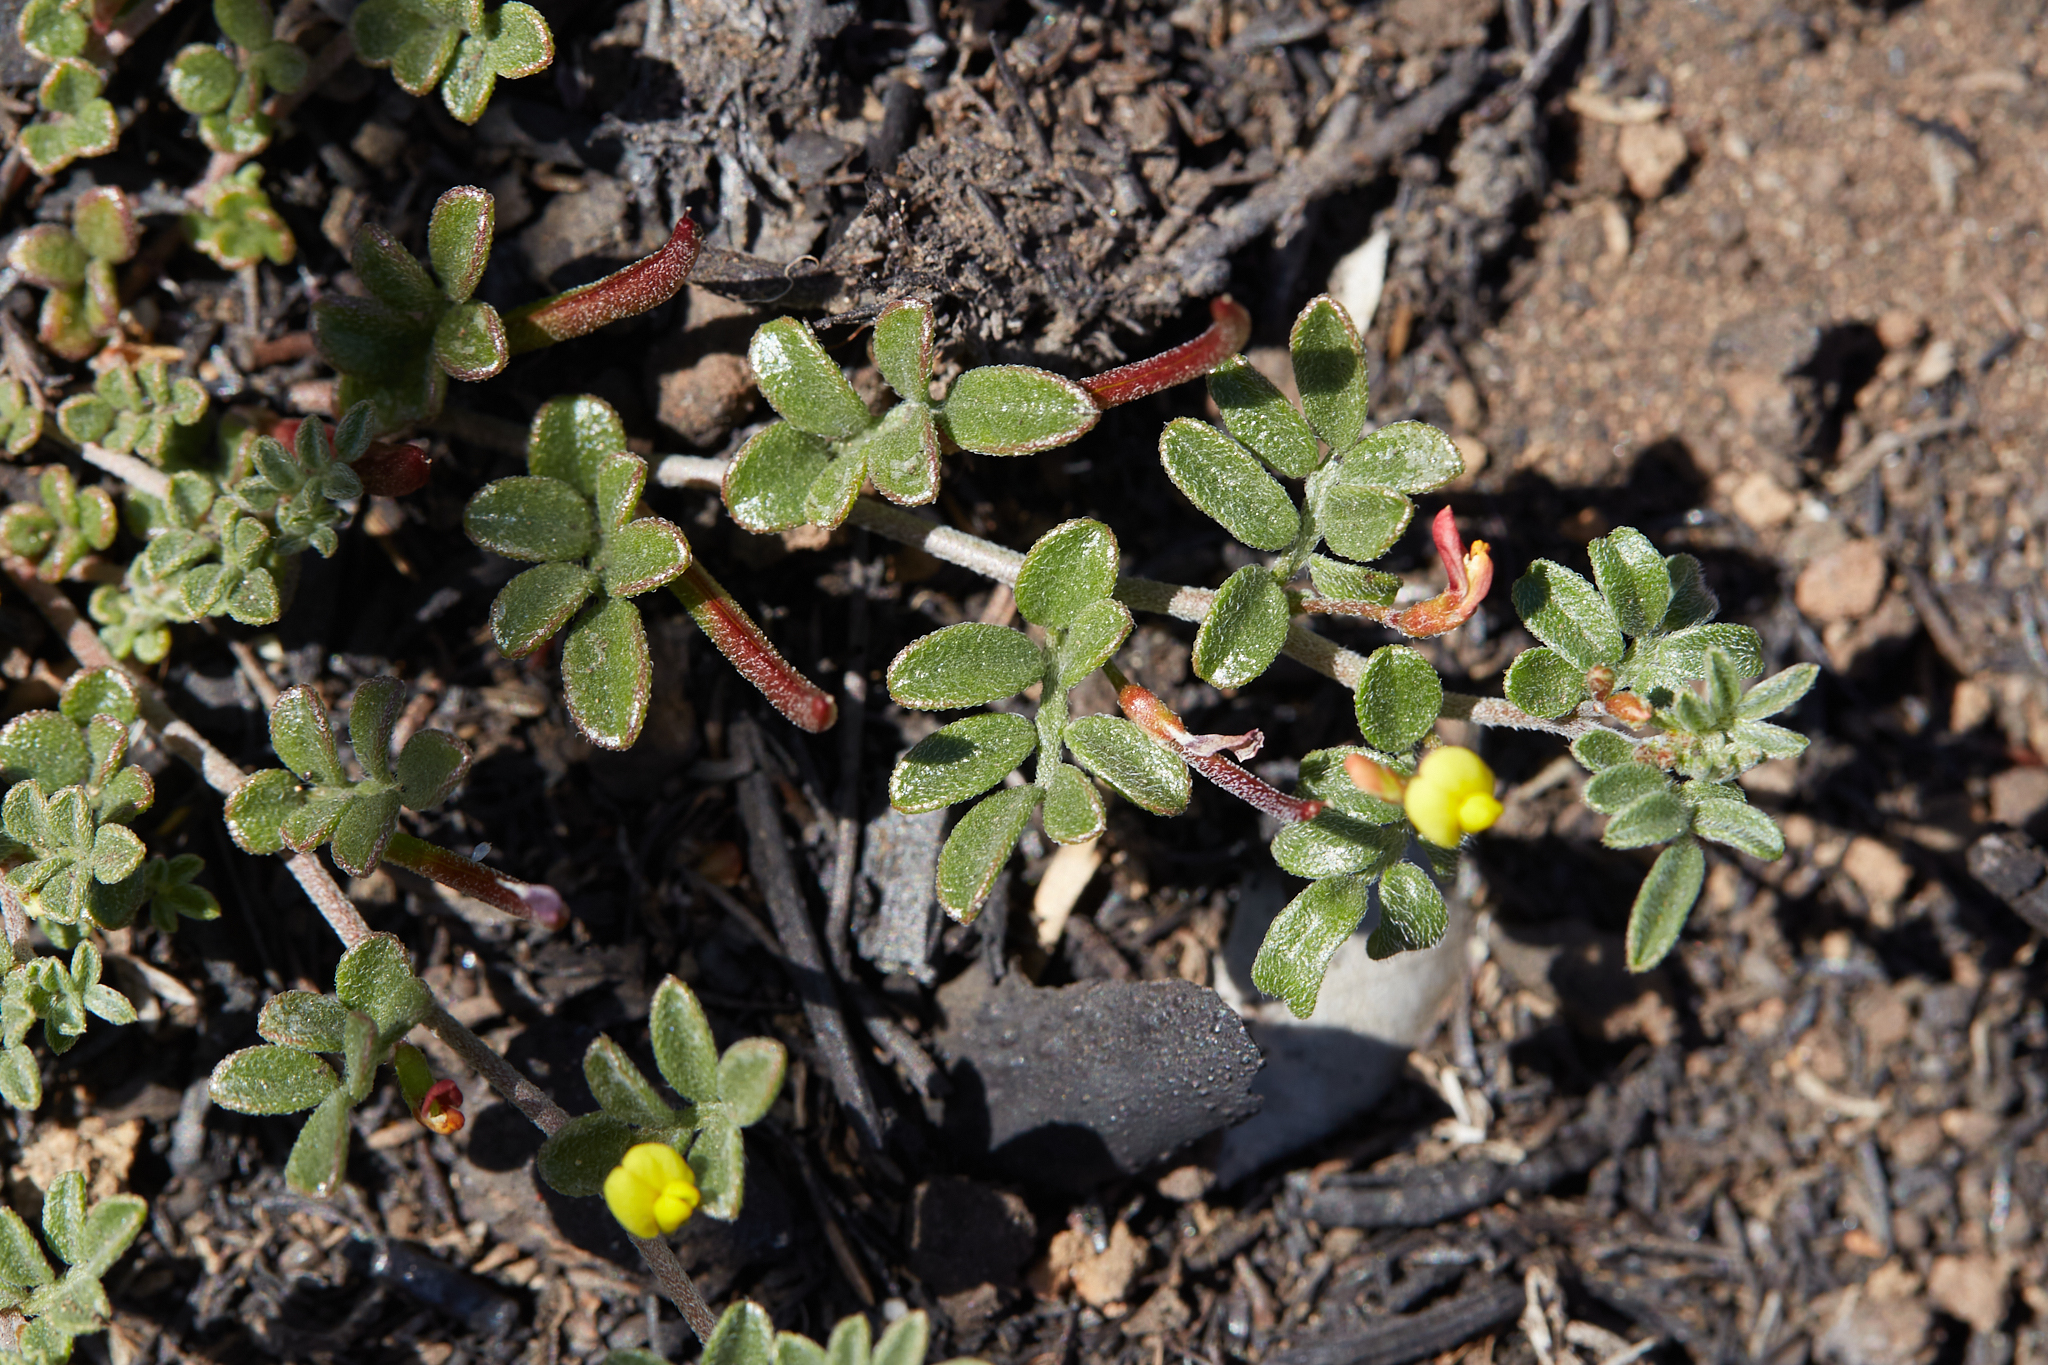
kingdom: Plantae
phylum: Tracheophyta
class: Magnoliopsida
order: Fabales
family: Fabaceae
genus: Acmispon
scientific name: Acmispon strigosus
